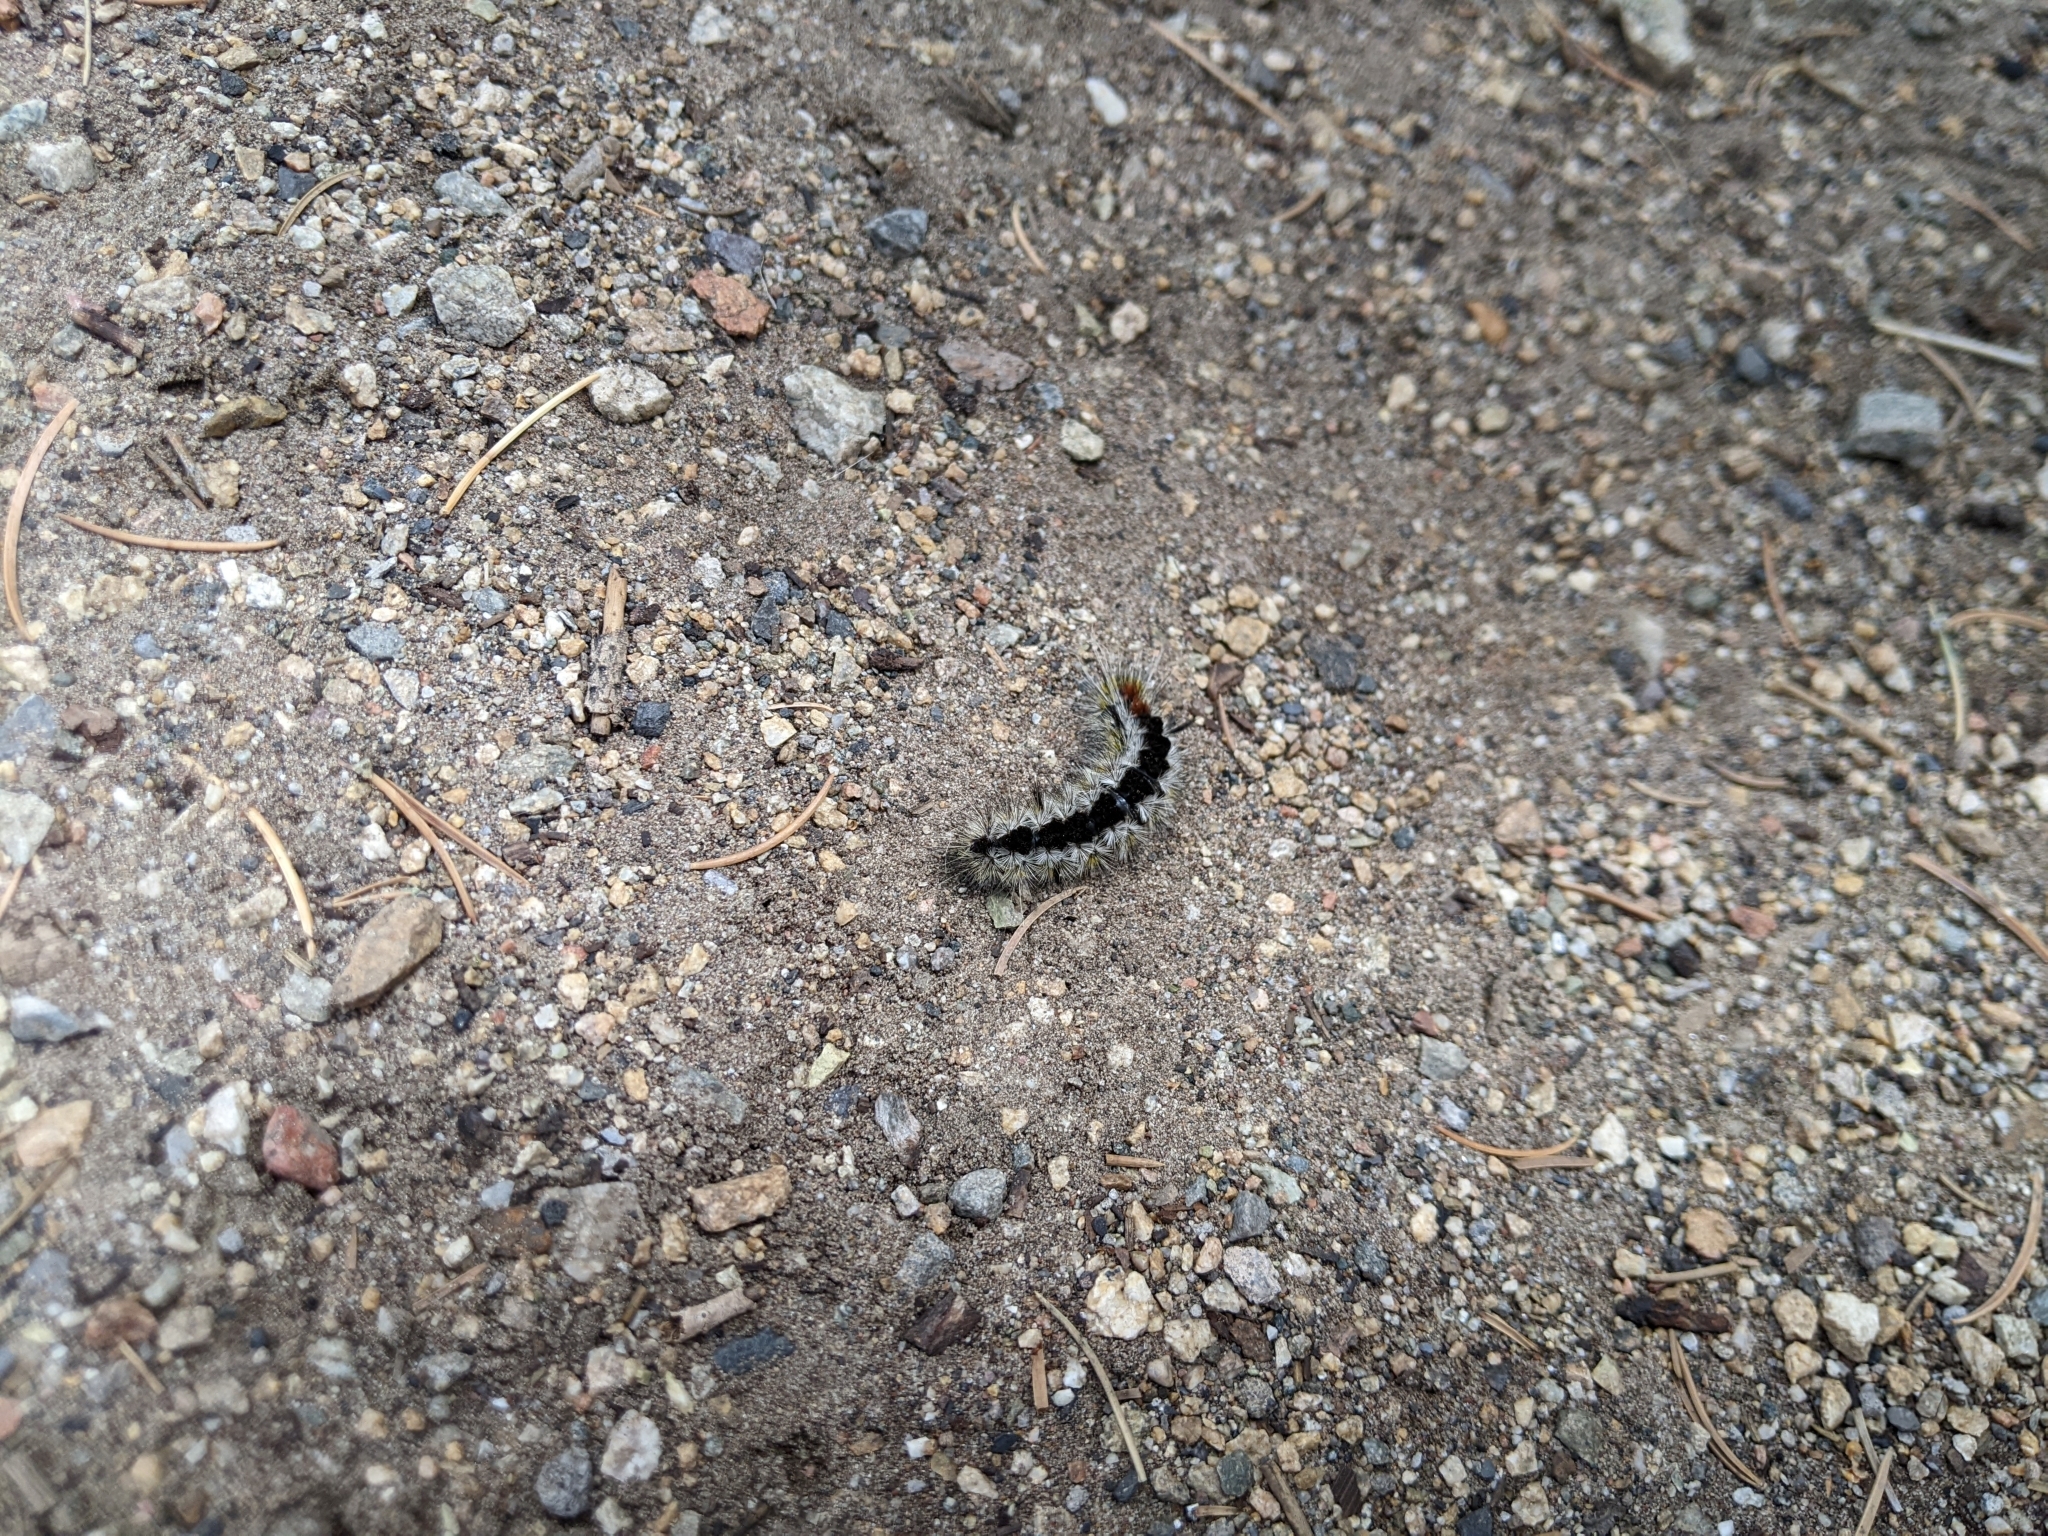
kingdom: Animalia
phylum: Arthropoda
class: Insecta
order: Lepidoptera
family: Erebidae
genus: Lophocampa
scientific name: Lophocampa ingens
